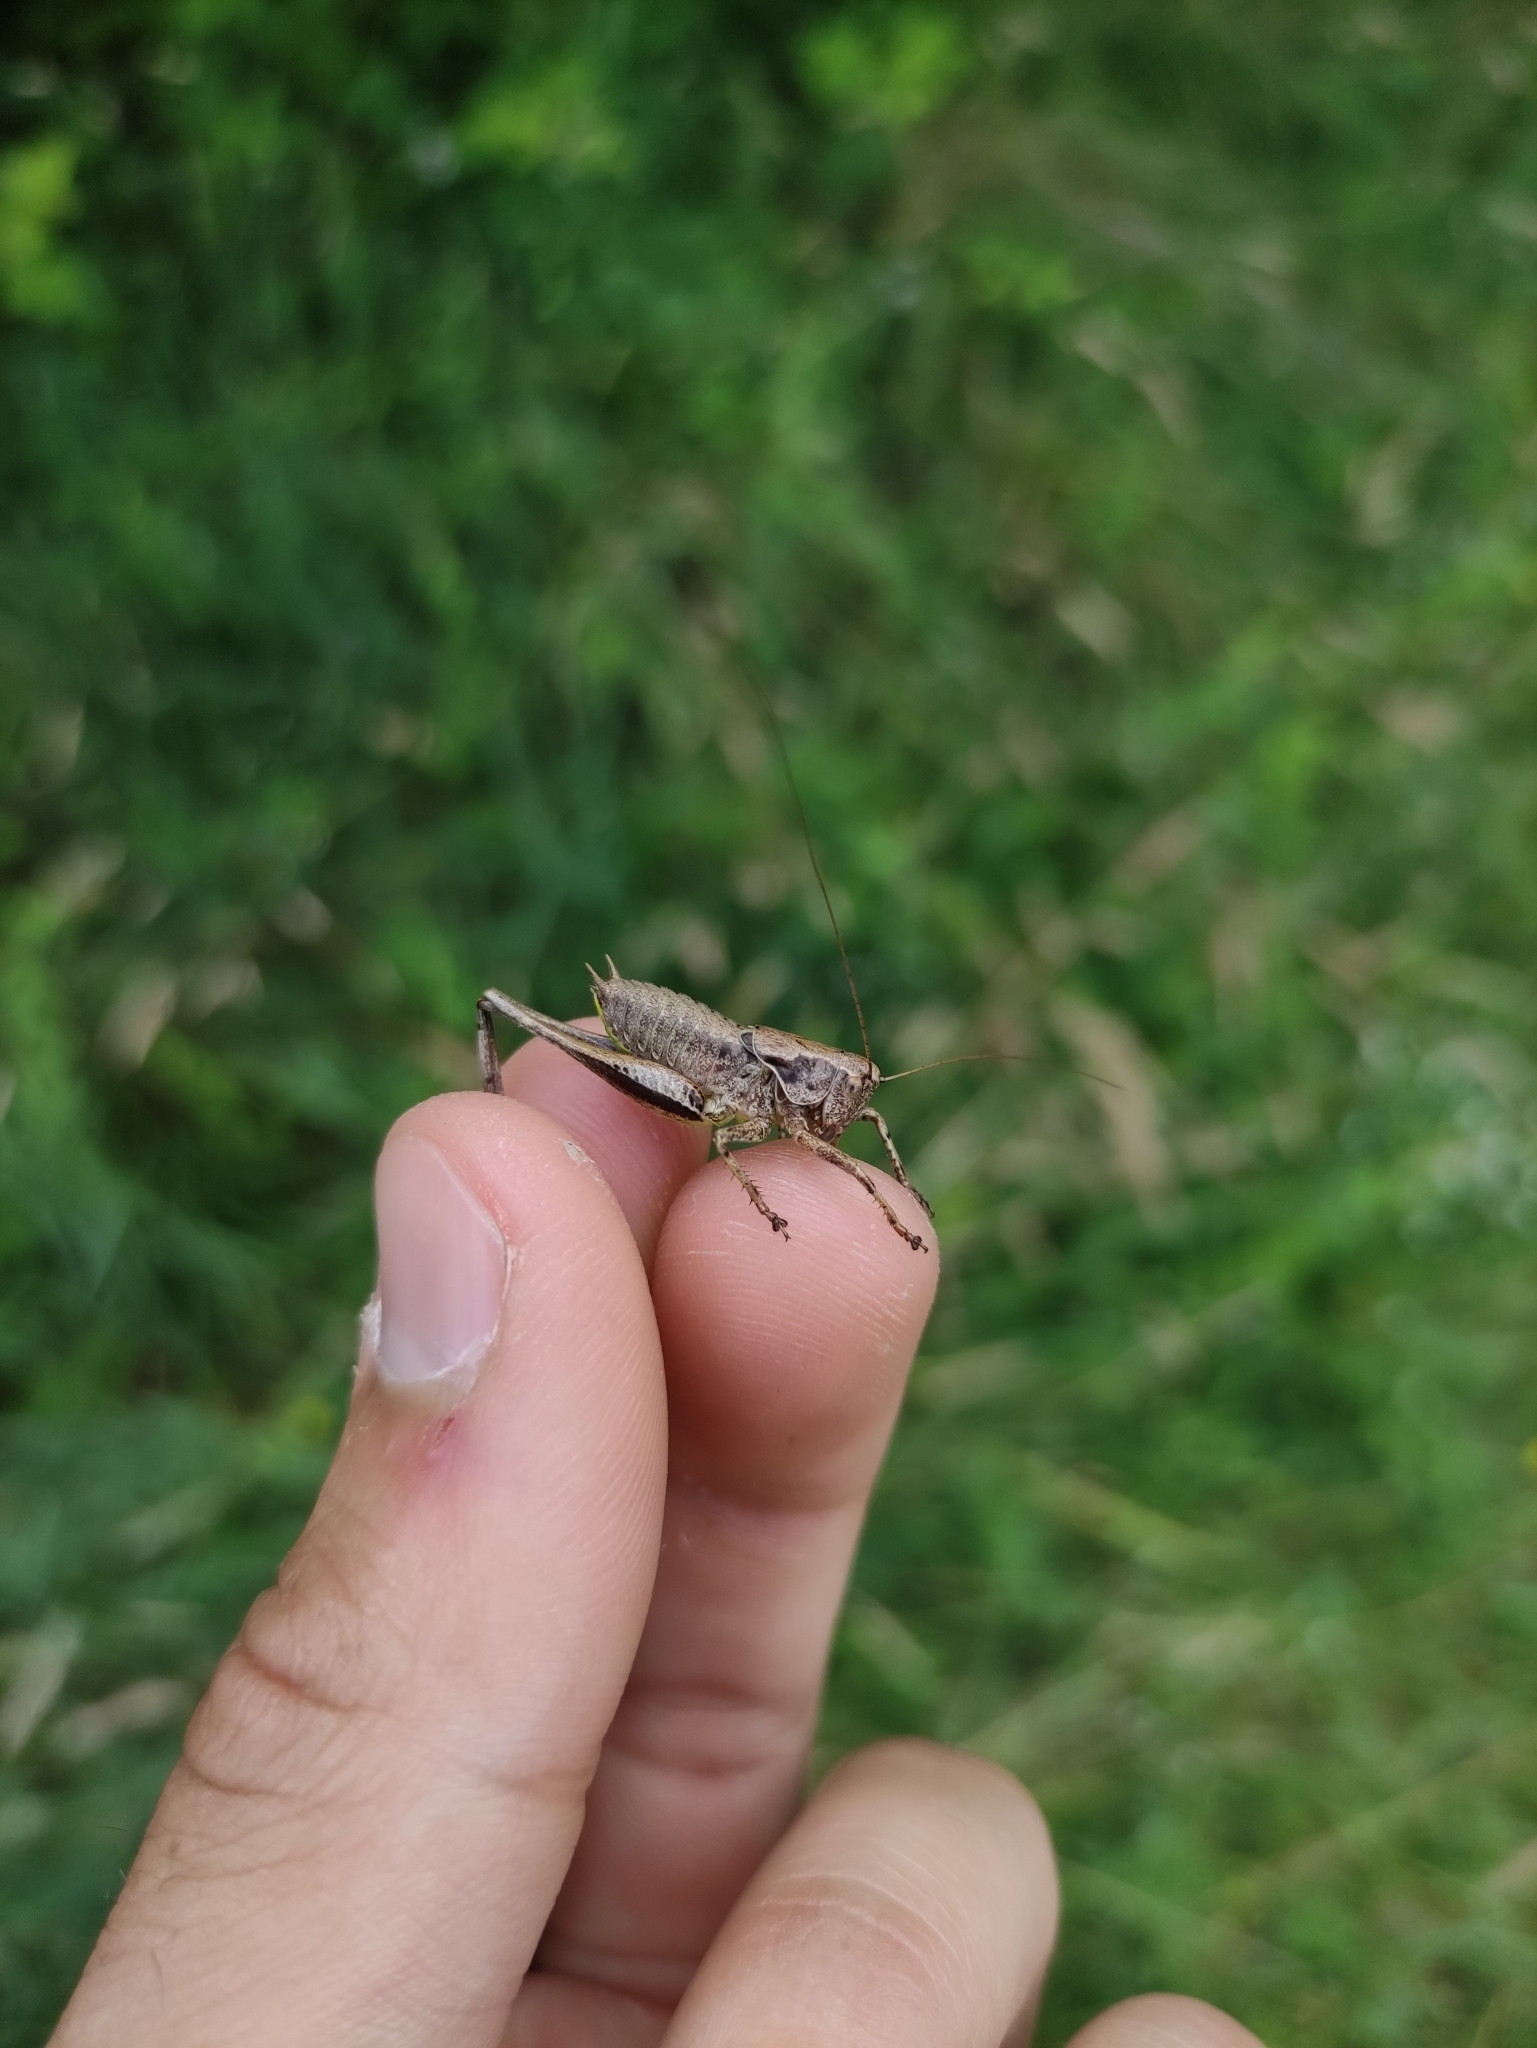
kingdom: Animalia
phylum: Arthropoda
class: Insecta
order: Orthoptera
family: Tettigoniidae
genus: Pholidoptera
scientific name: Pholidoptera griseoaptera
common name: Dark bush-cricket
